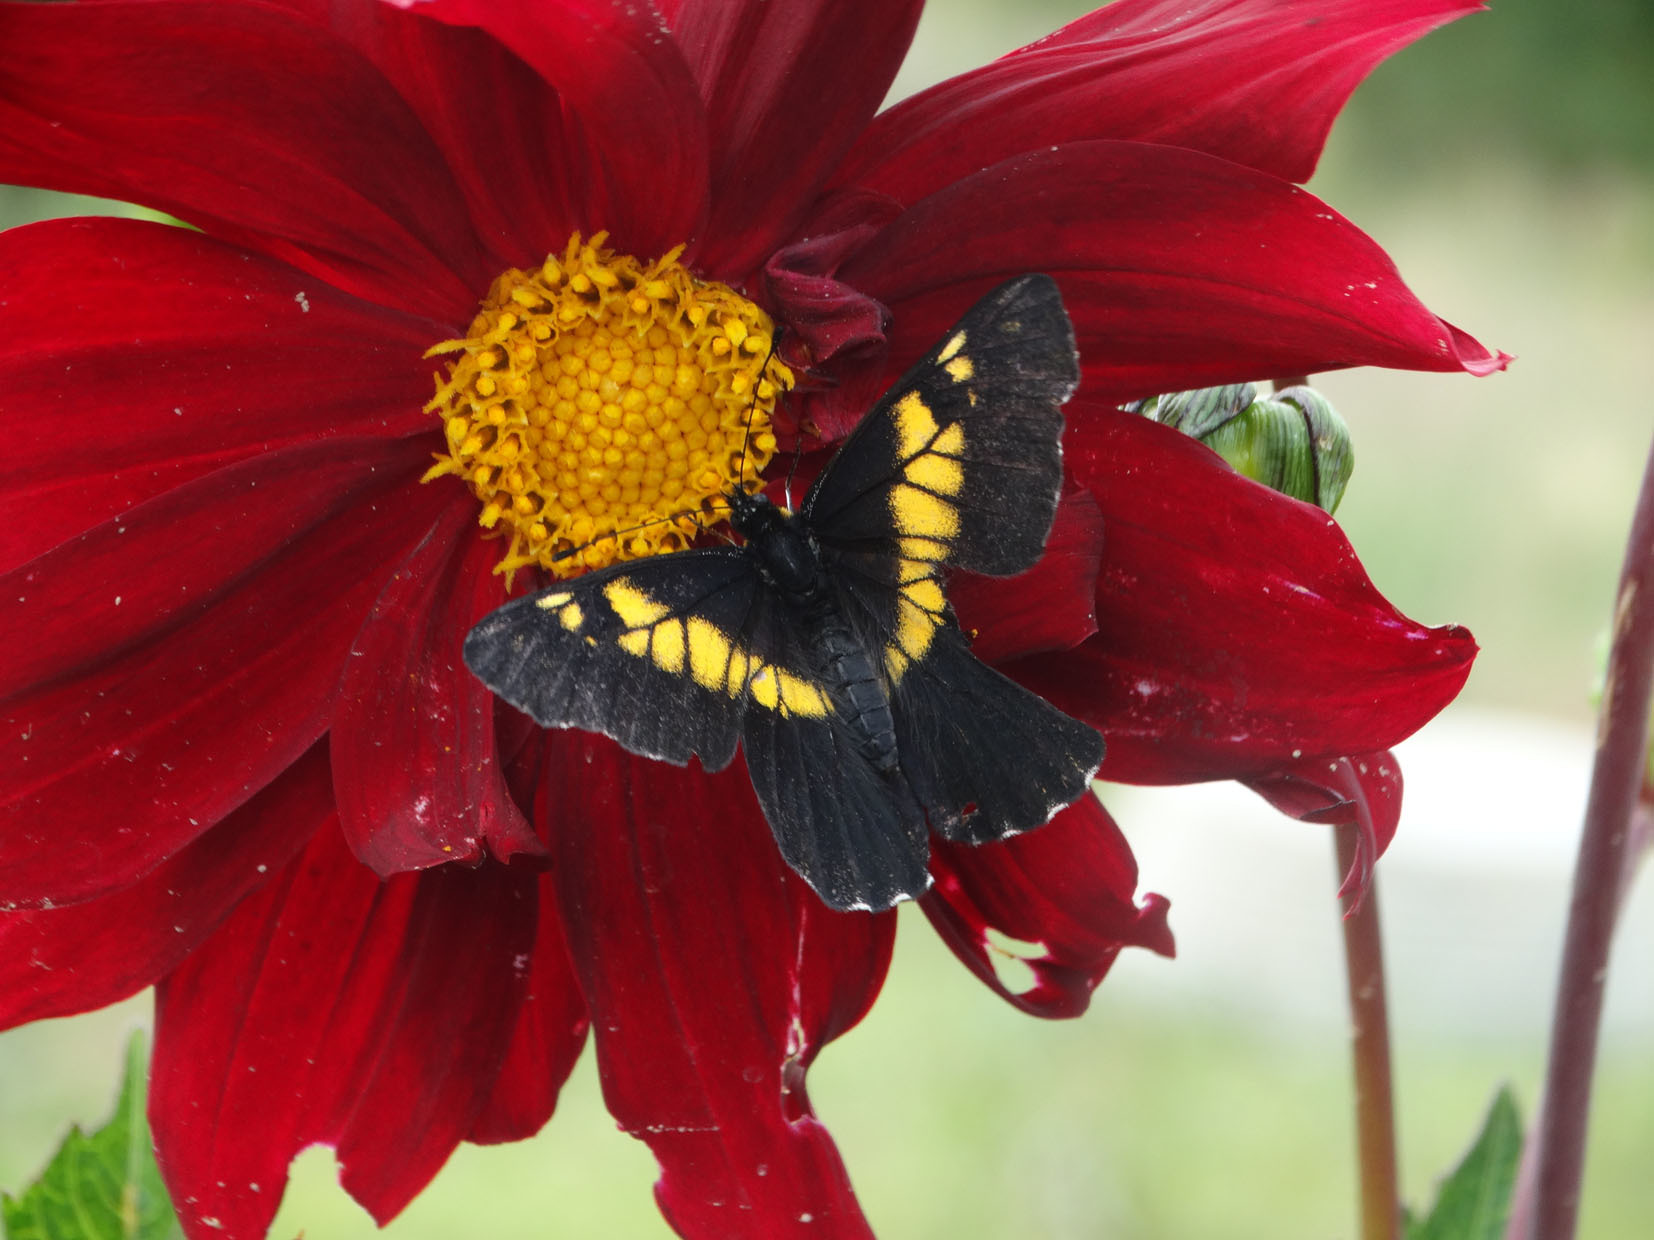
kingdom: Animalia
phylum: Arthropoda
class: Insecta
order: Lepidoptera
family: Pieridae
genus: Archonias
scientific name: Archonias teutila
